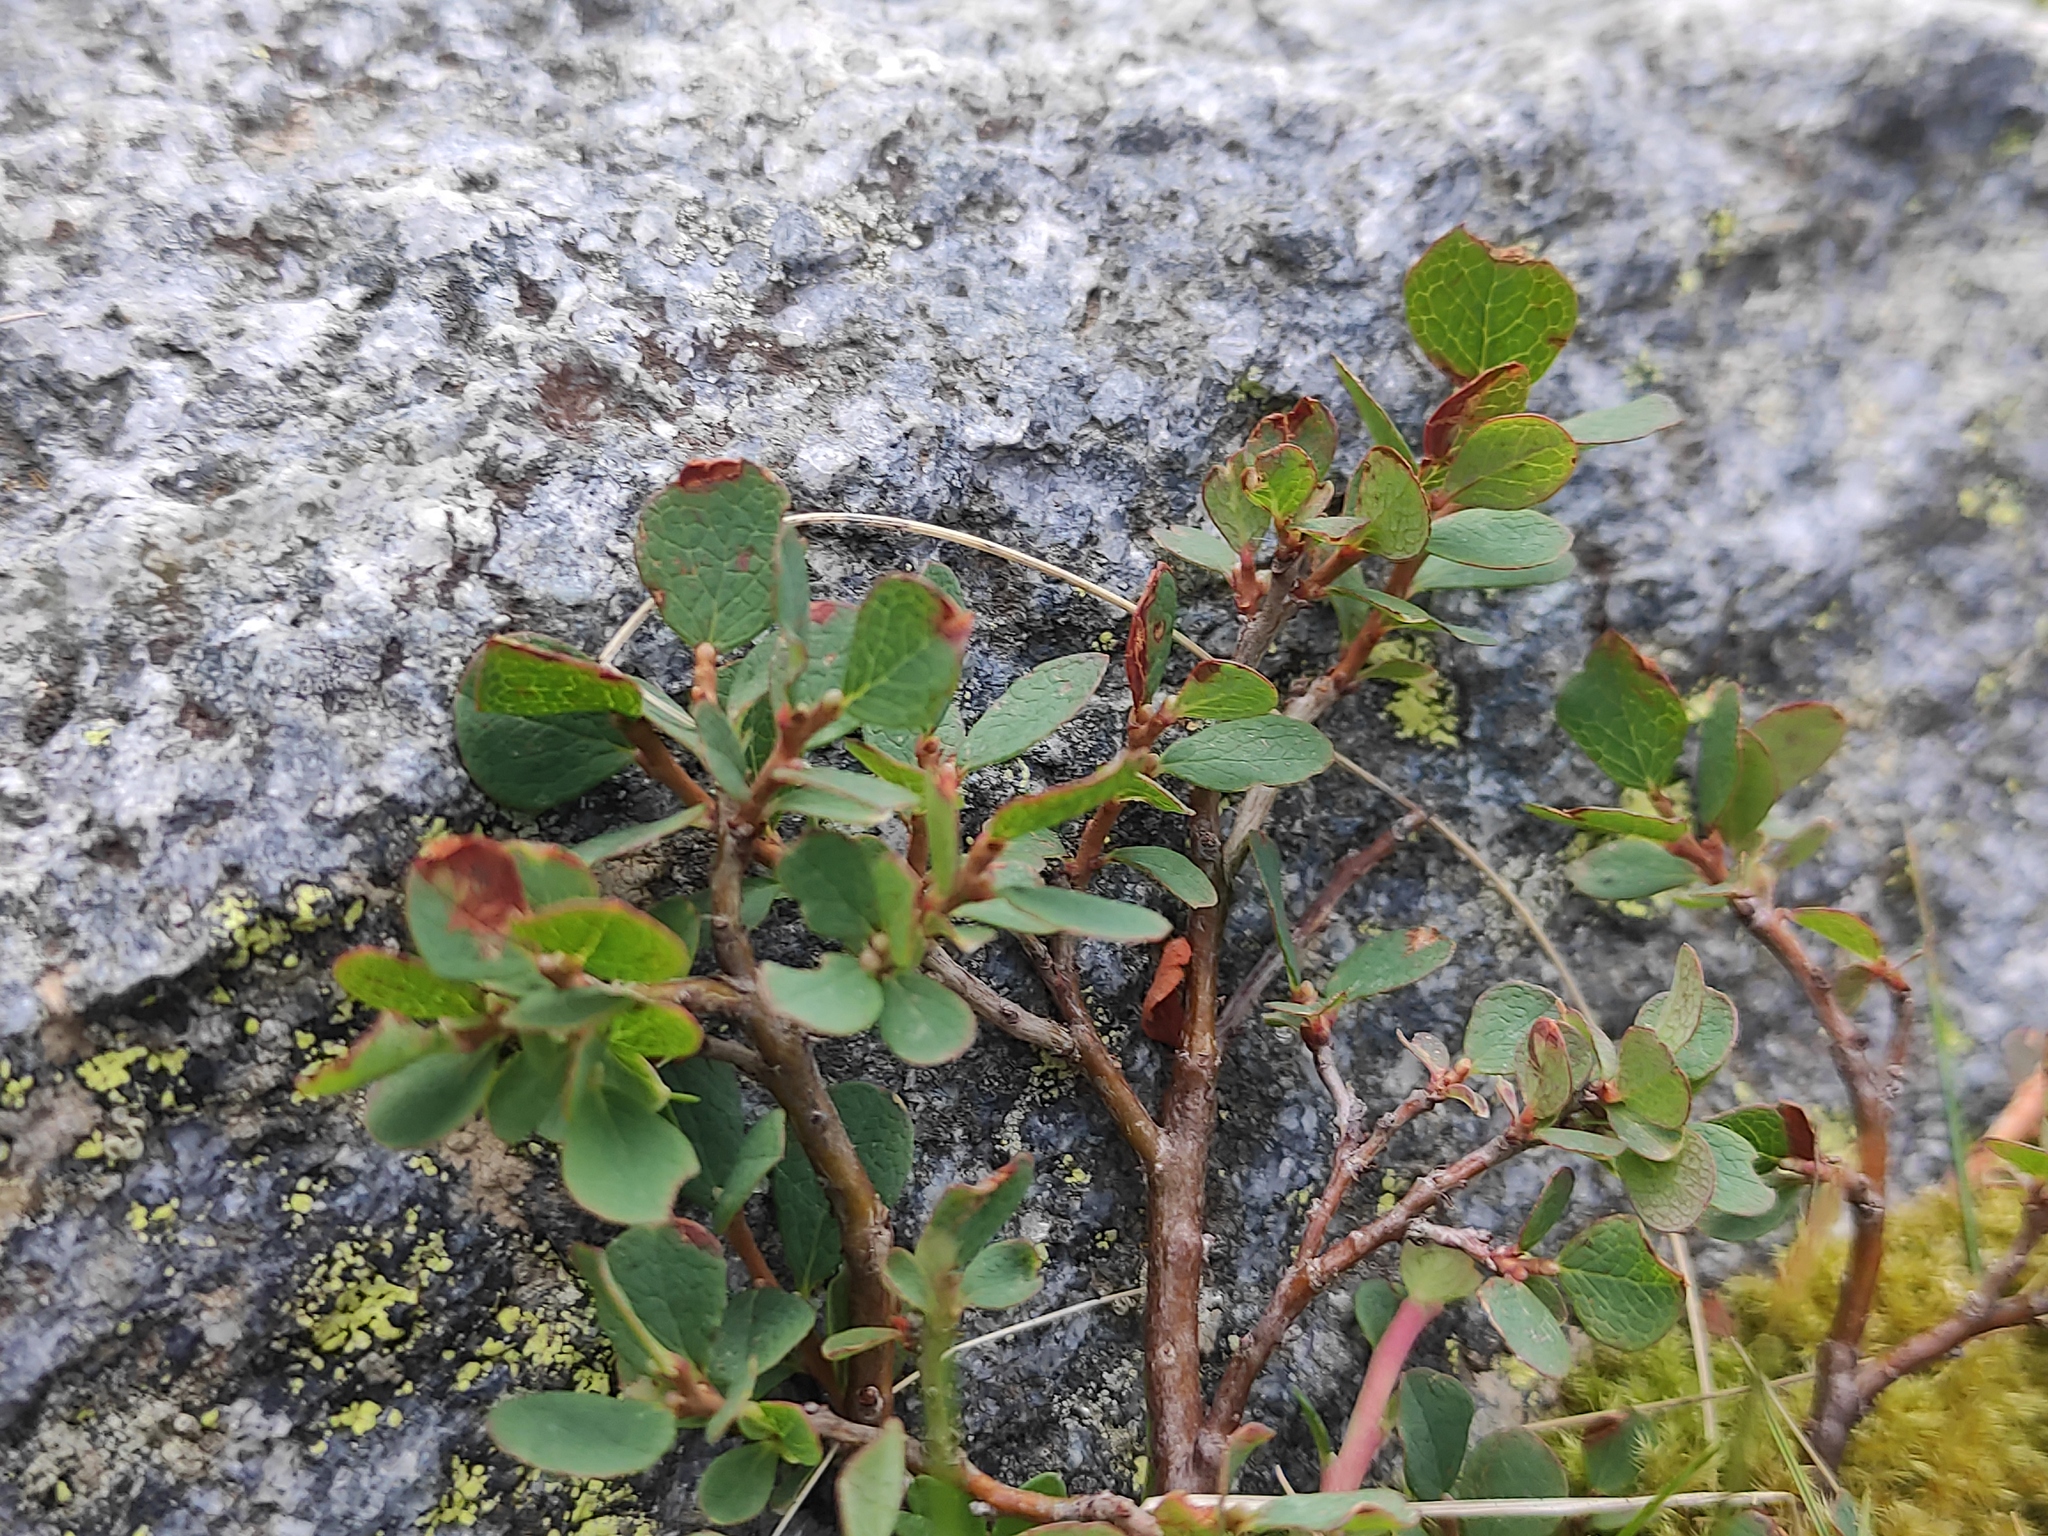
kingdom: Plantae
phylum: Tracheophyta
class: Magnoliopsida
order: Ericales
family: Ericaceae
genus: Vaccinium
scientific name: Vaccinium uliginosum
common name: Bog bilberry
